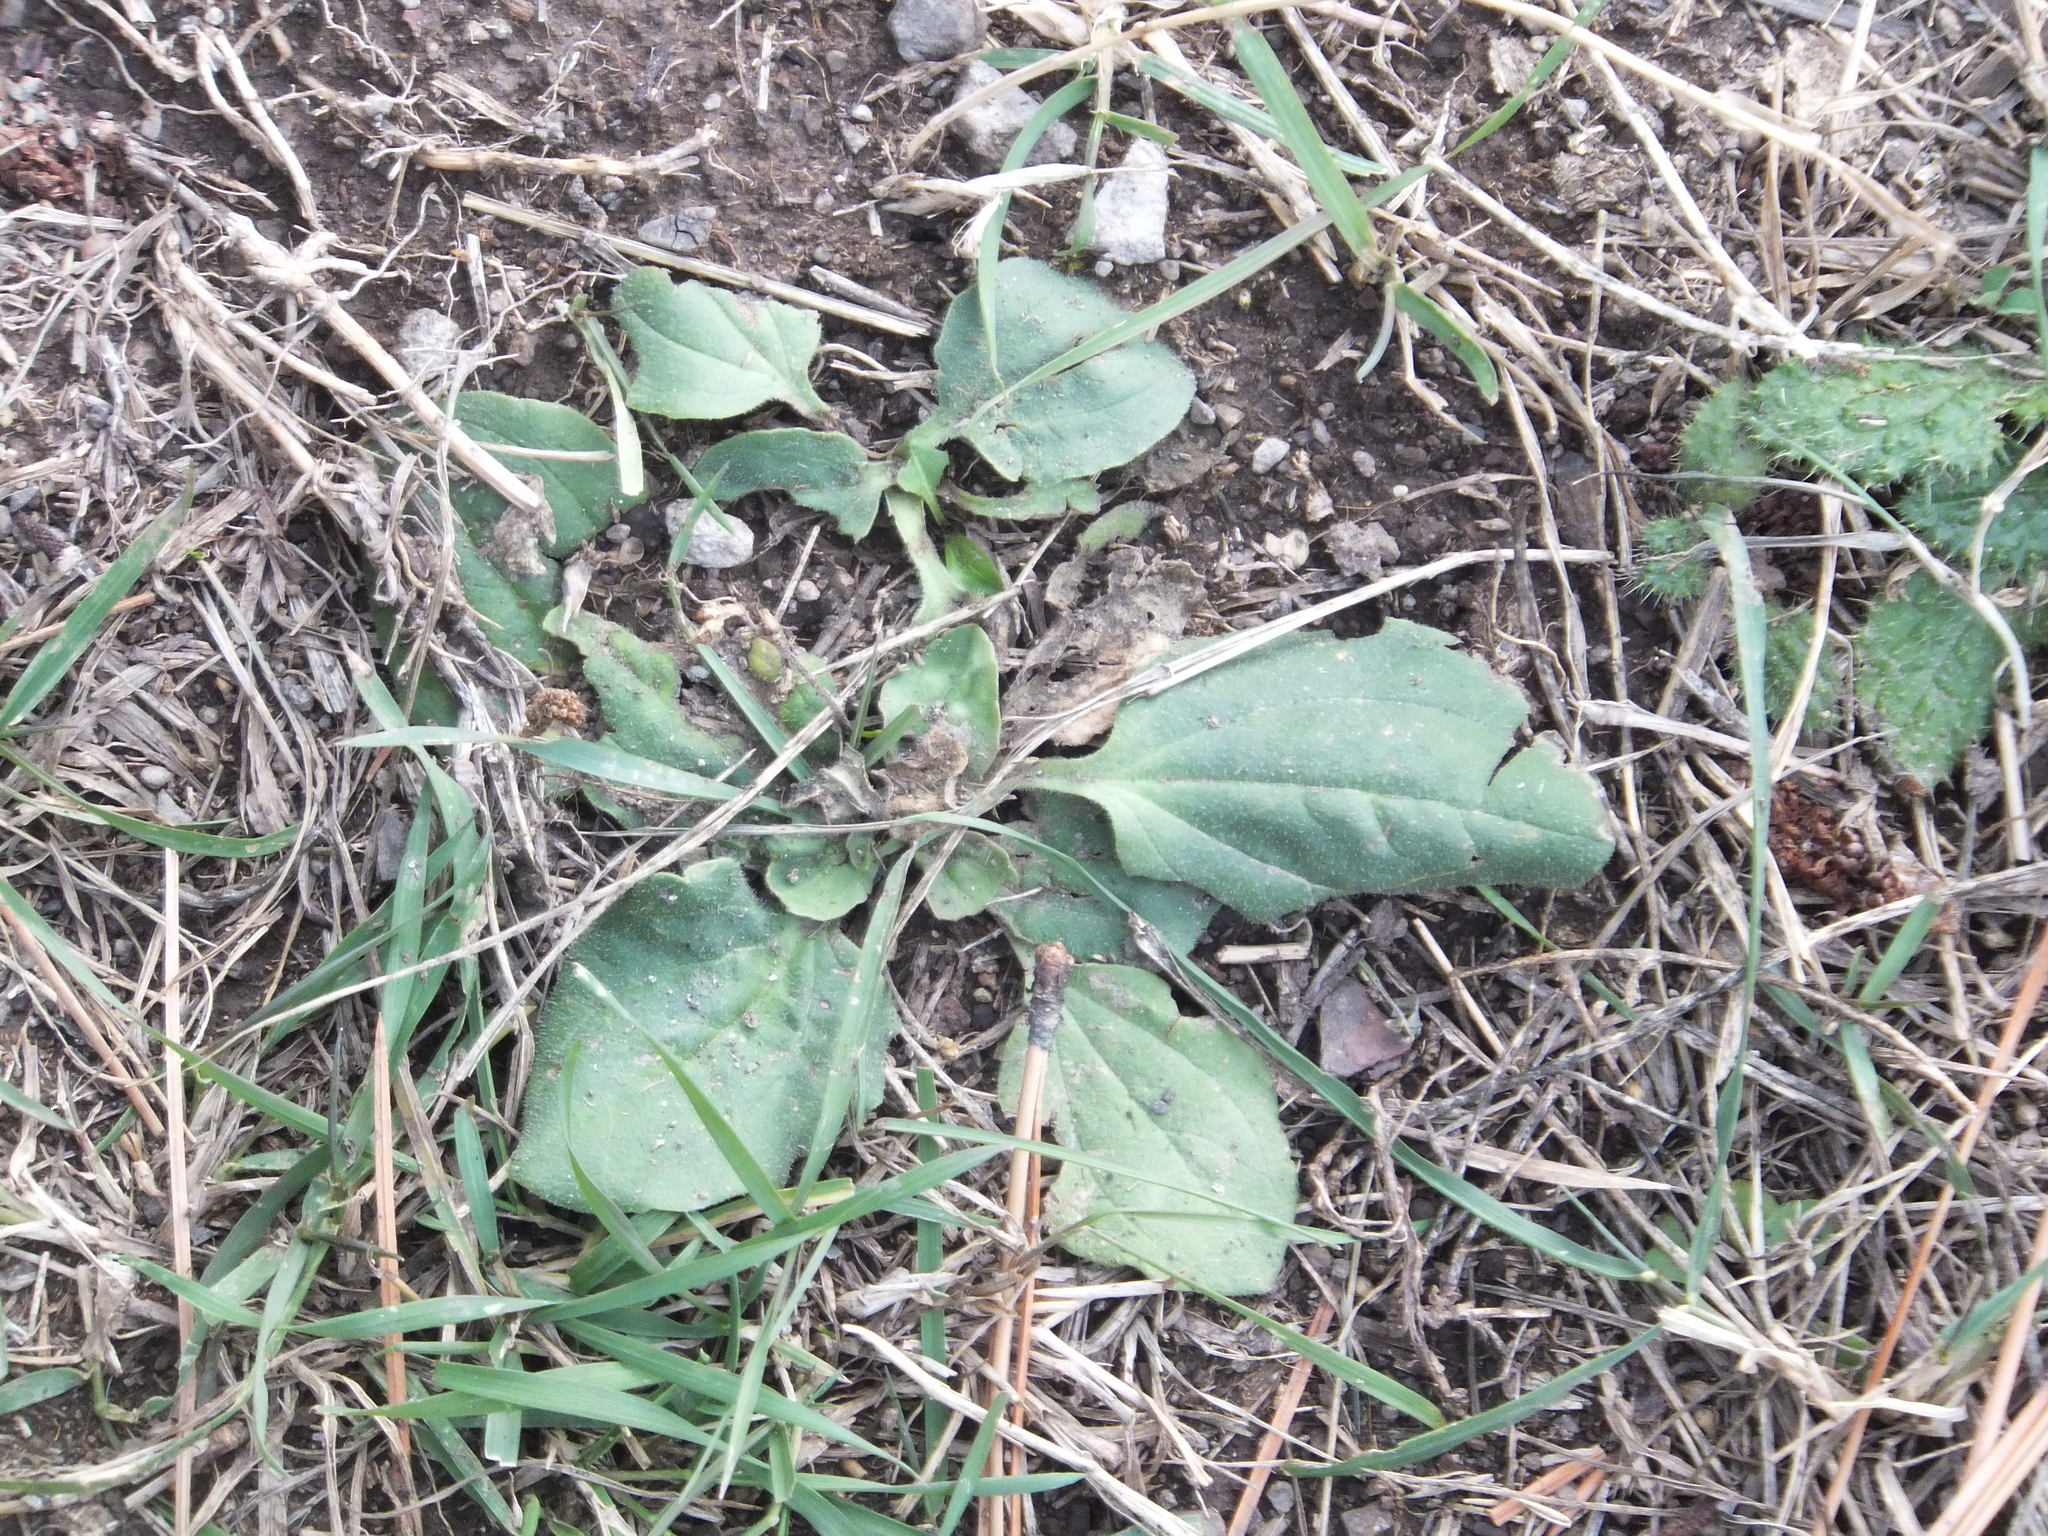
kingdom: Plantae
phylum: Tracheophyta
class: Magnoliopsida
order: Lamiales
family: Plantaginaceae
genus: Plantago
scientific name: Plantago major
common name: Common plantain
